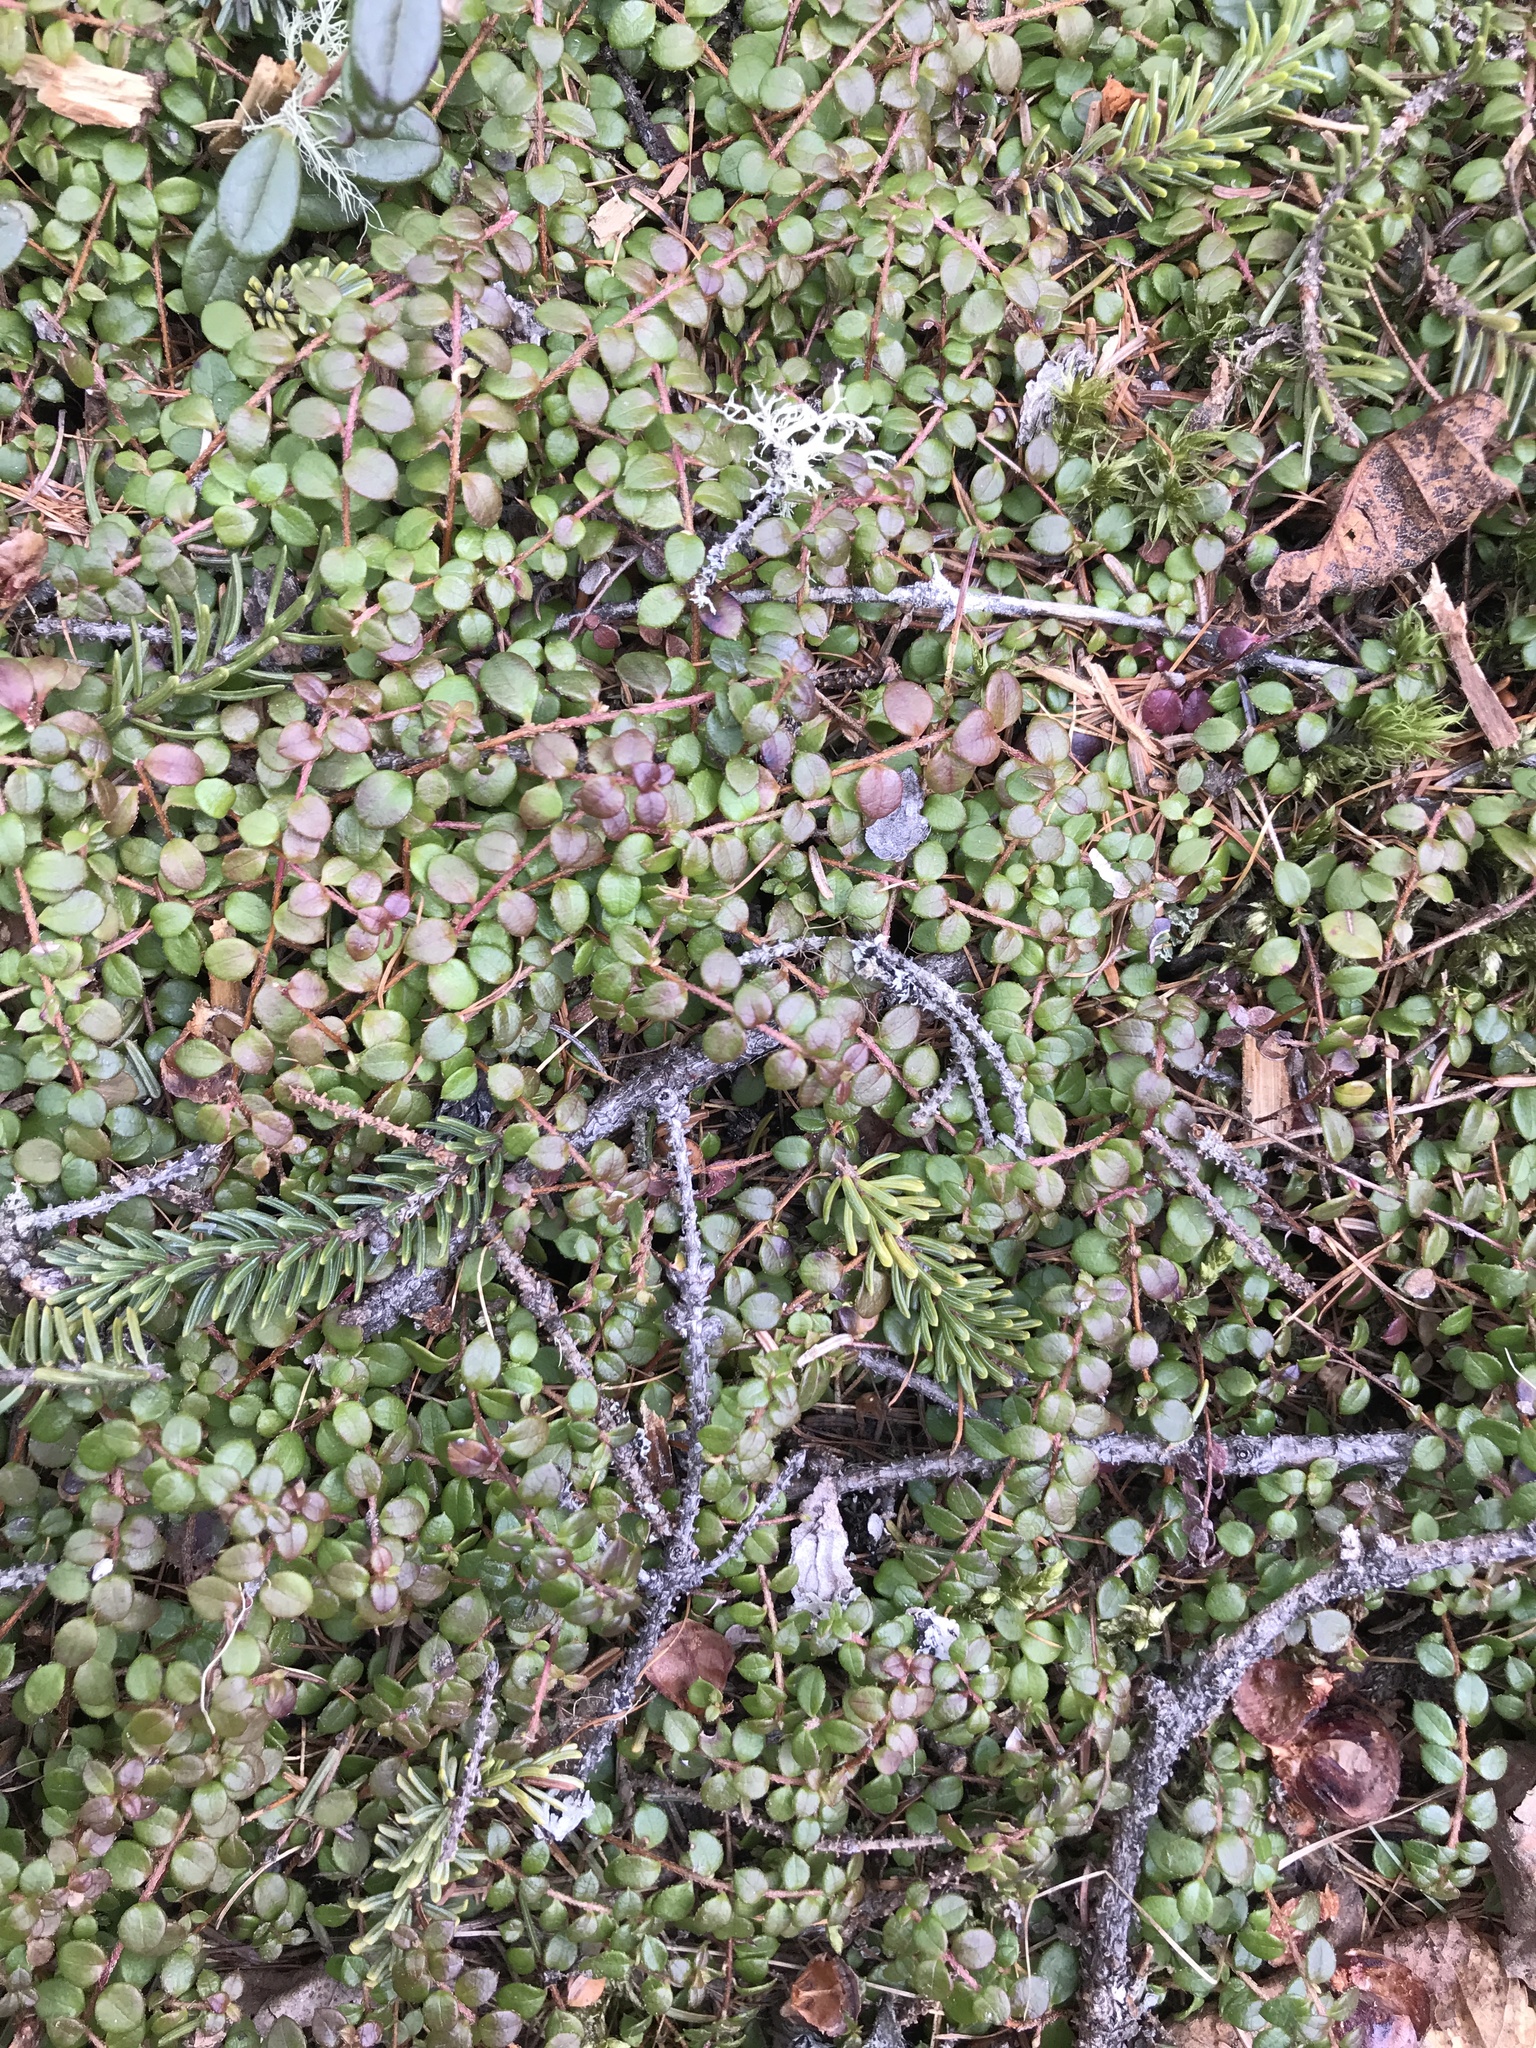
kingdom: Plantae
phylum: Tracheophyta
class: Magnoliopsida
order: Ericales
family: Ericaceae
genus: Gaultheria
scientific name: Gaultheria hispidula
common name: Cancer wintergreen
